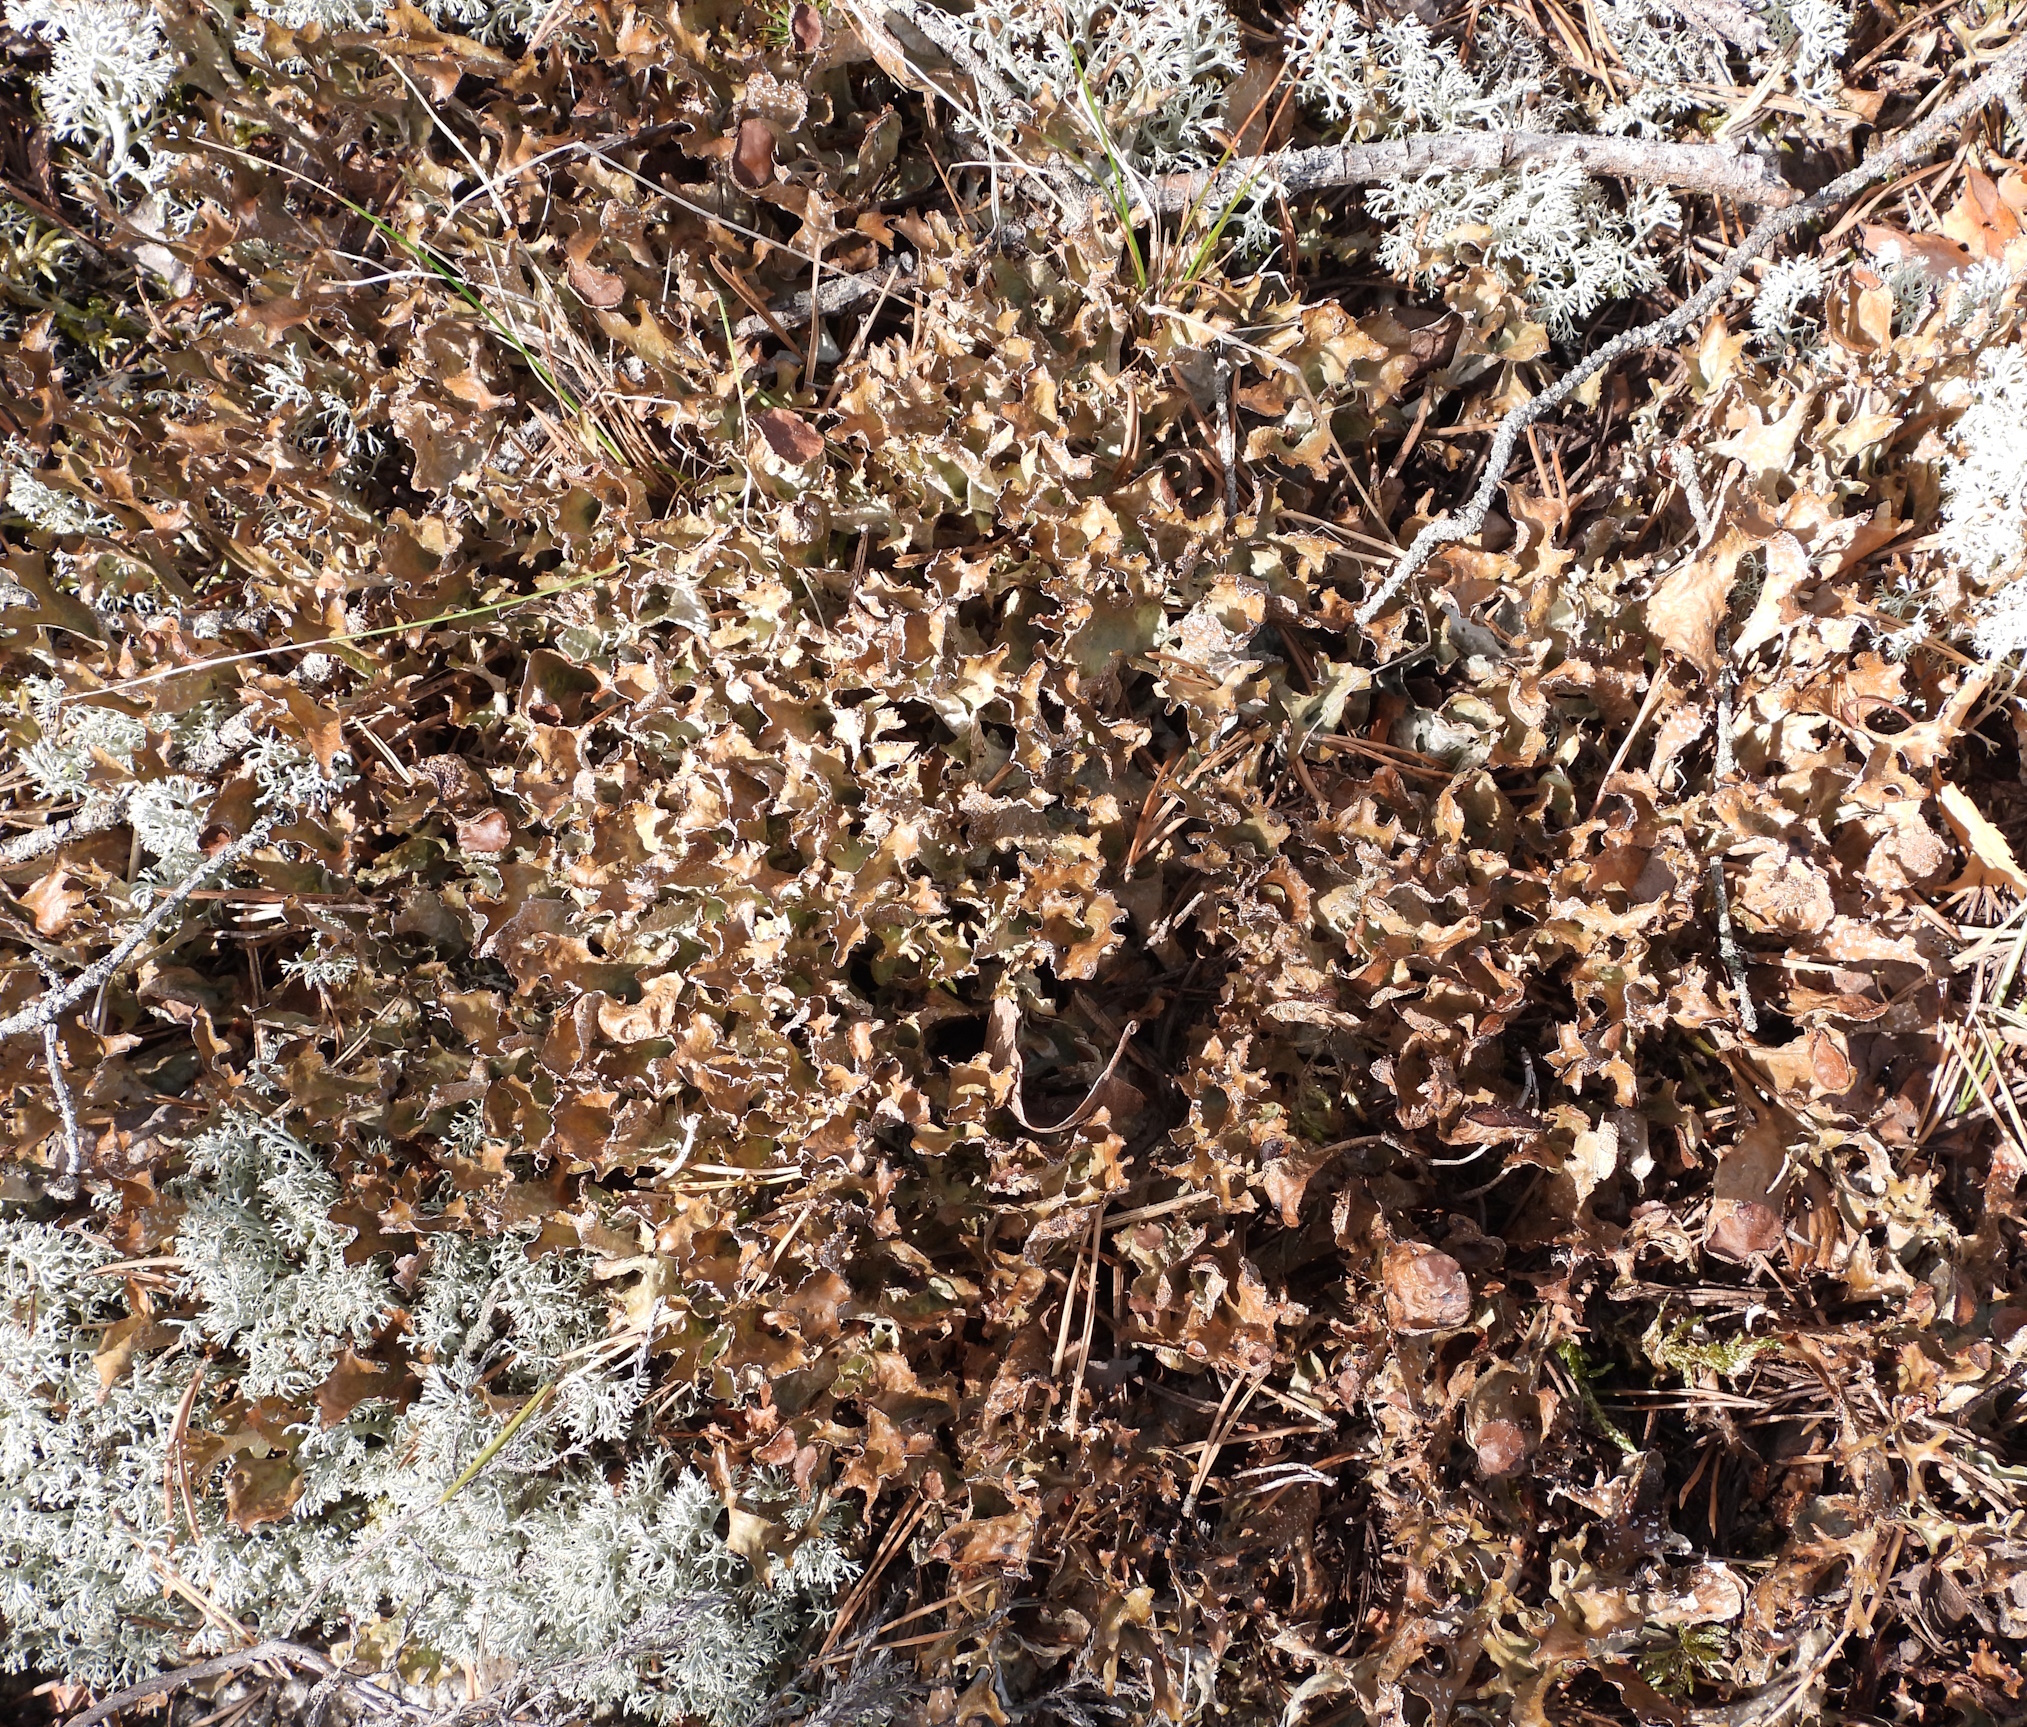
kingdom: Fungi
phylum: Ascomycota
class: Lecanoromycetes
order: Lecanorales
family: Parmeliaceae
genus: Cetraria
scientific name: Cetraria islandica
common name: Iceland lichen
